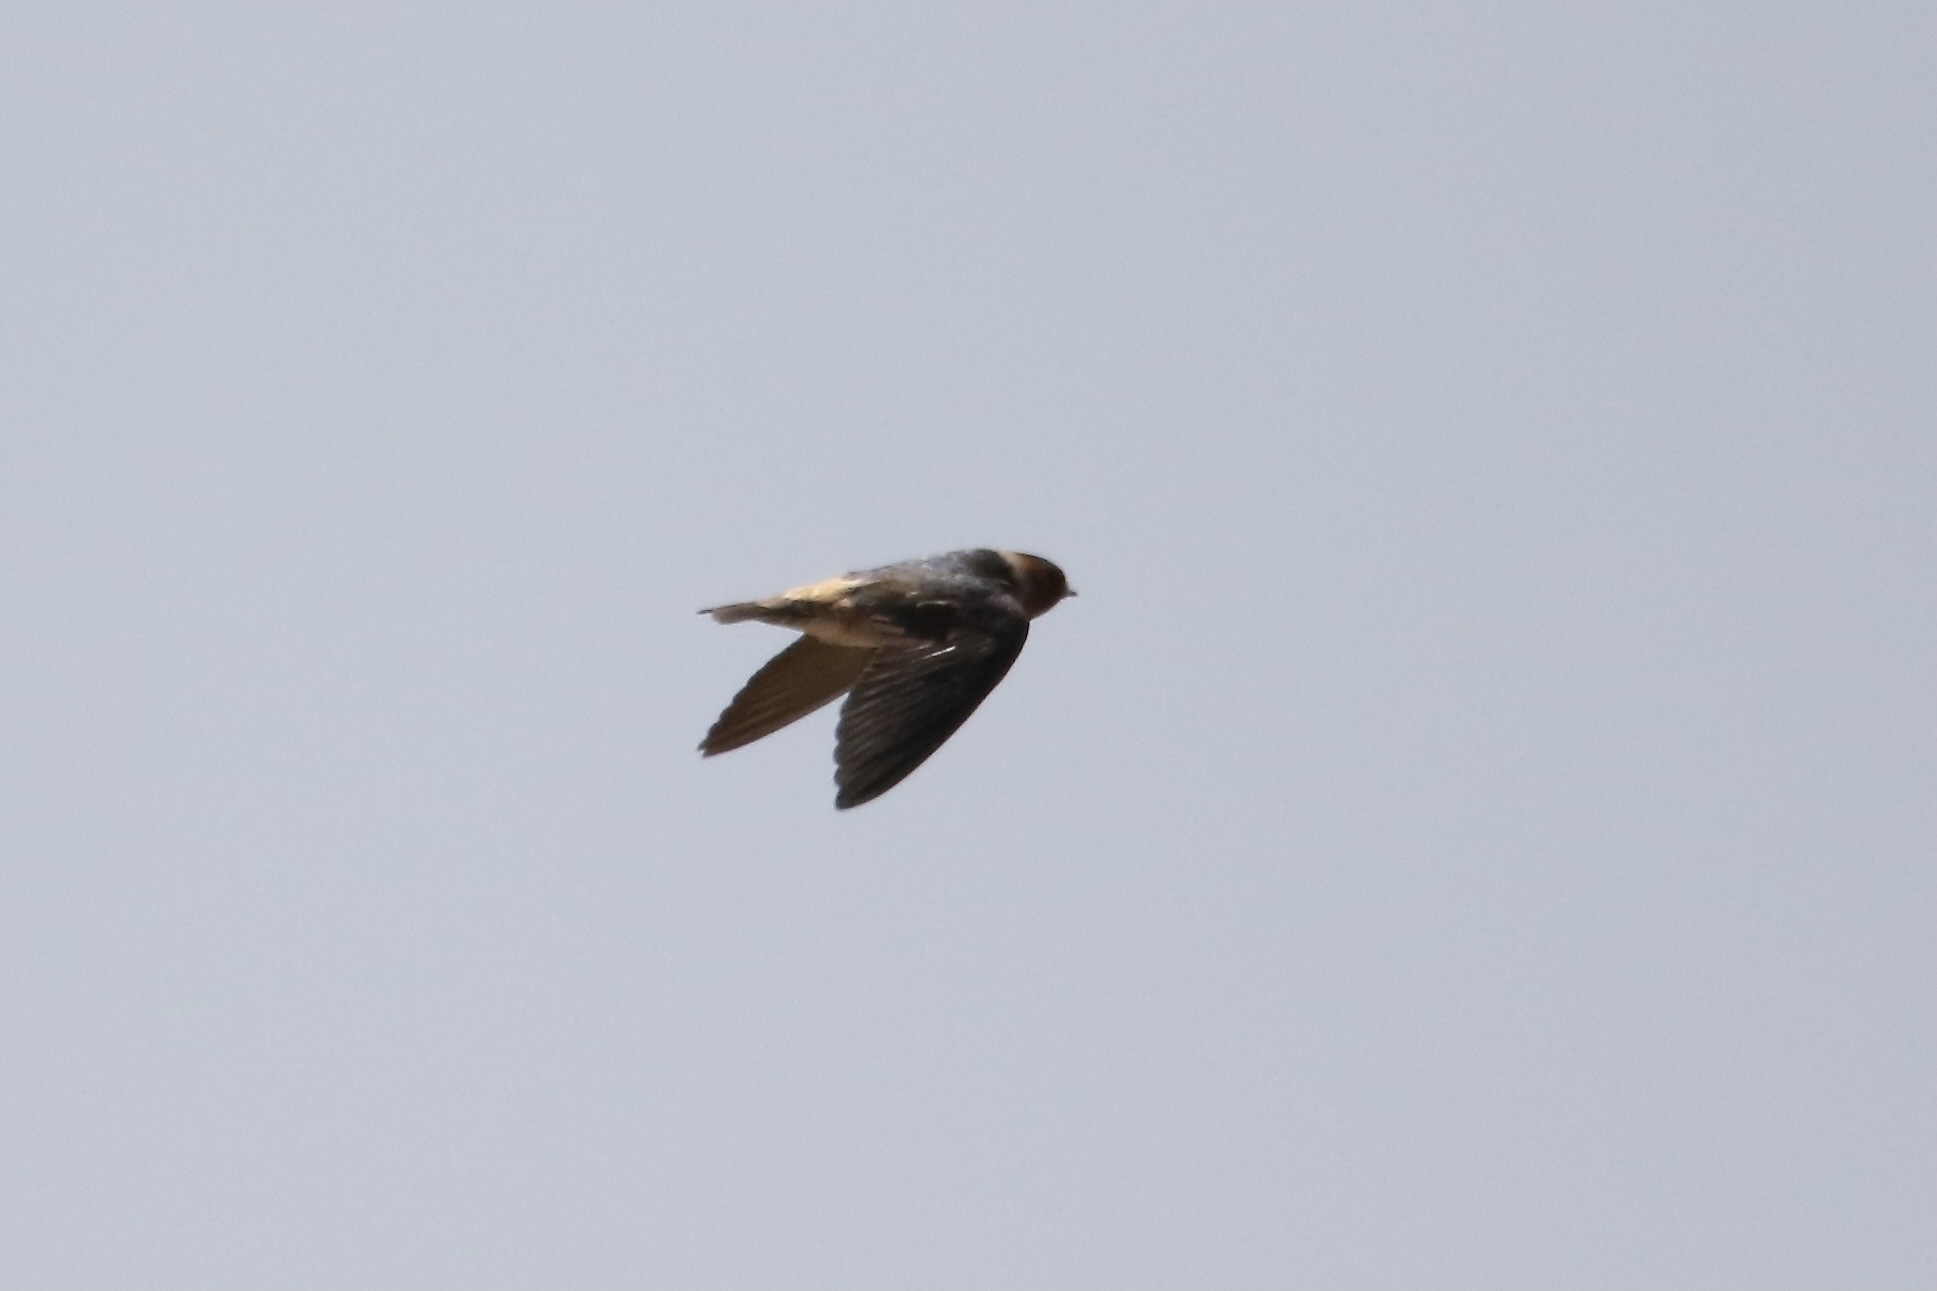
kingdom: Animalia
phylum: Chordata
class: Aves
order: Passeriformes
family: Hirundinidae
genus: Petrochelidon
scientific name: Petrochelidon pyrrhonota
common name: American cliff swallow
